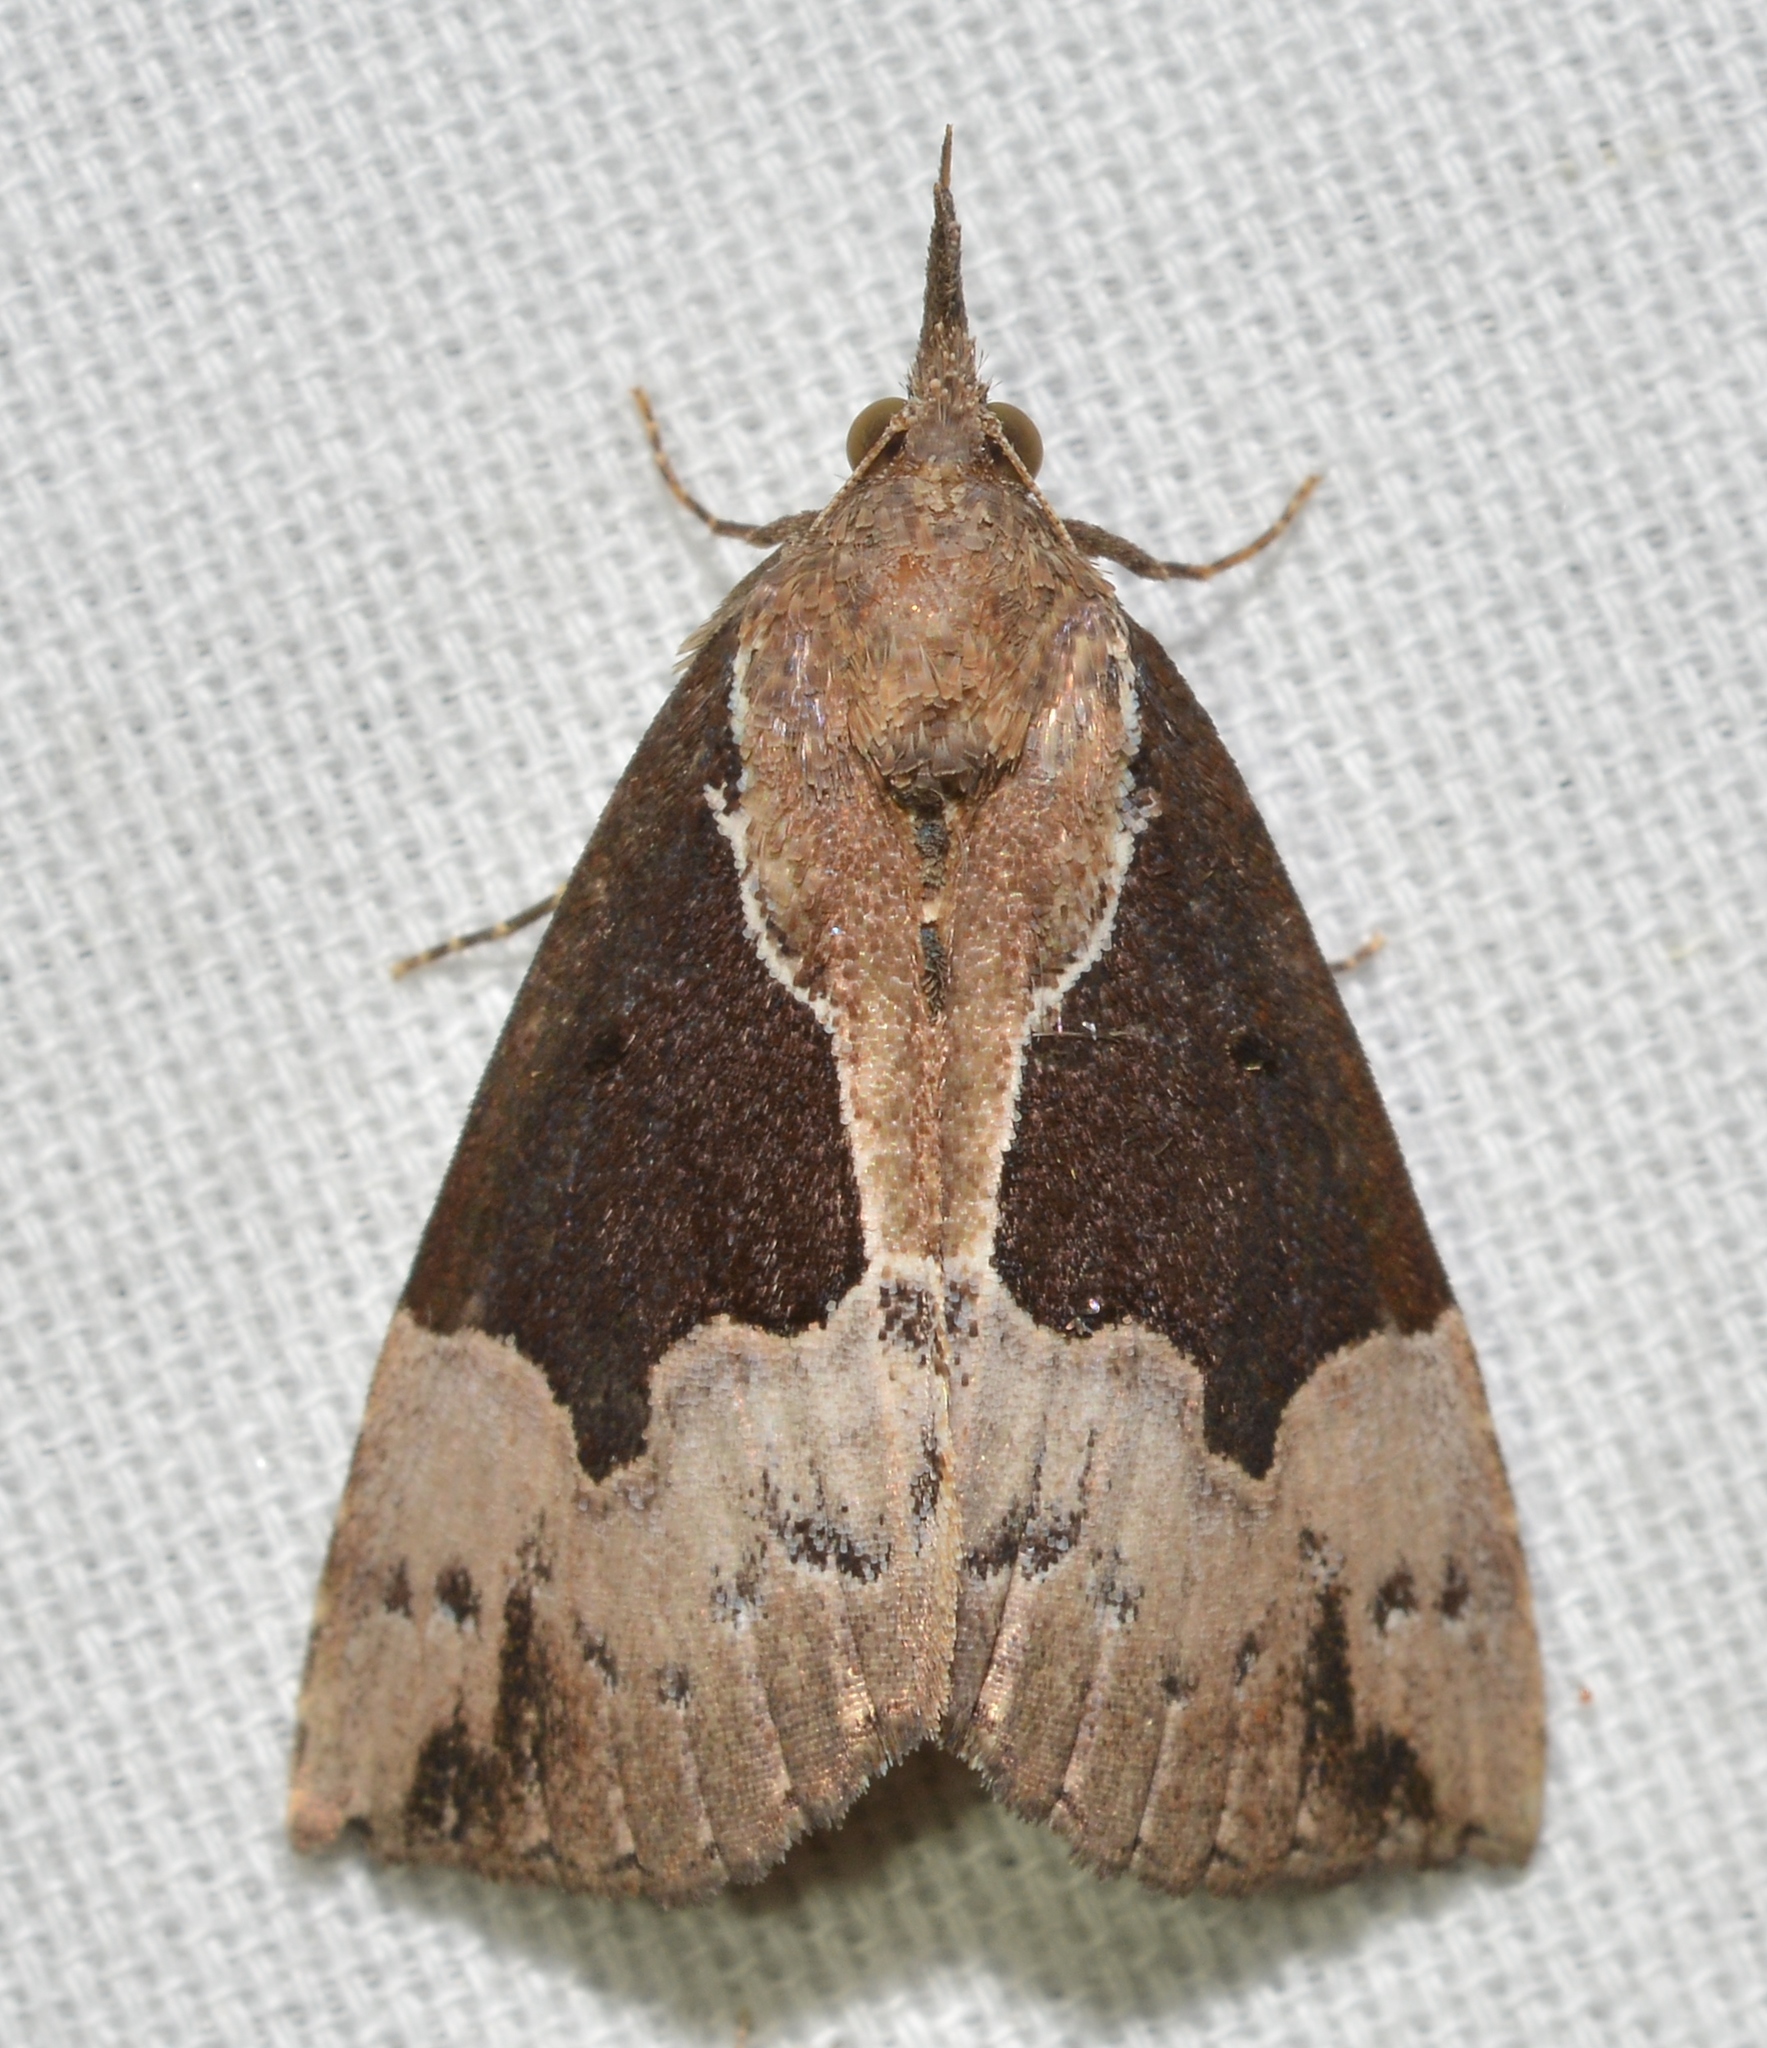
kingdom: Animalia
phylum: Arthropoda
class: Insecta
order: Lepidoptera
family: Erebidae
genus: Hypena
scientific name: Hypena bijugalis
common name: Dimorphic bomolocha moth
